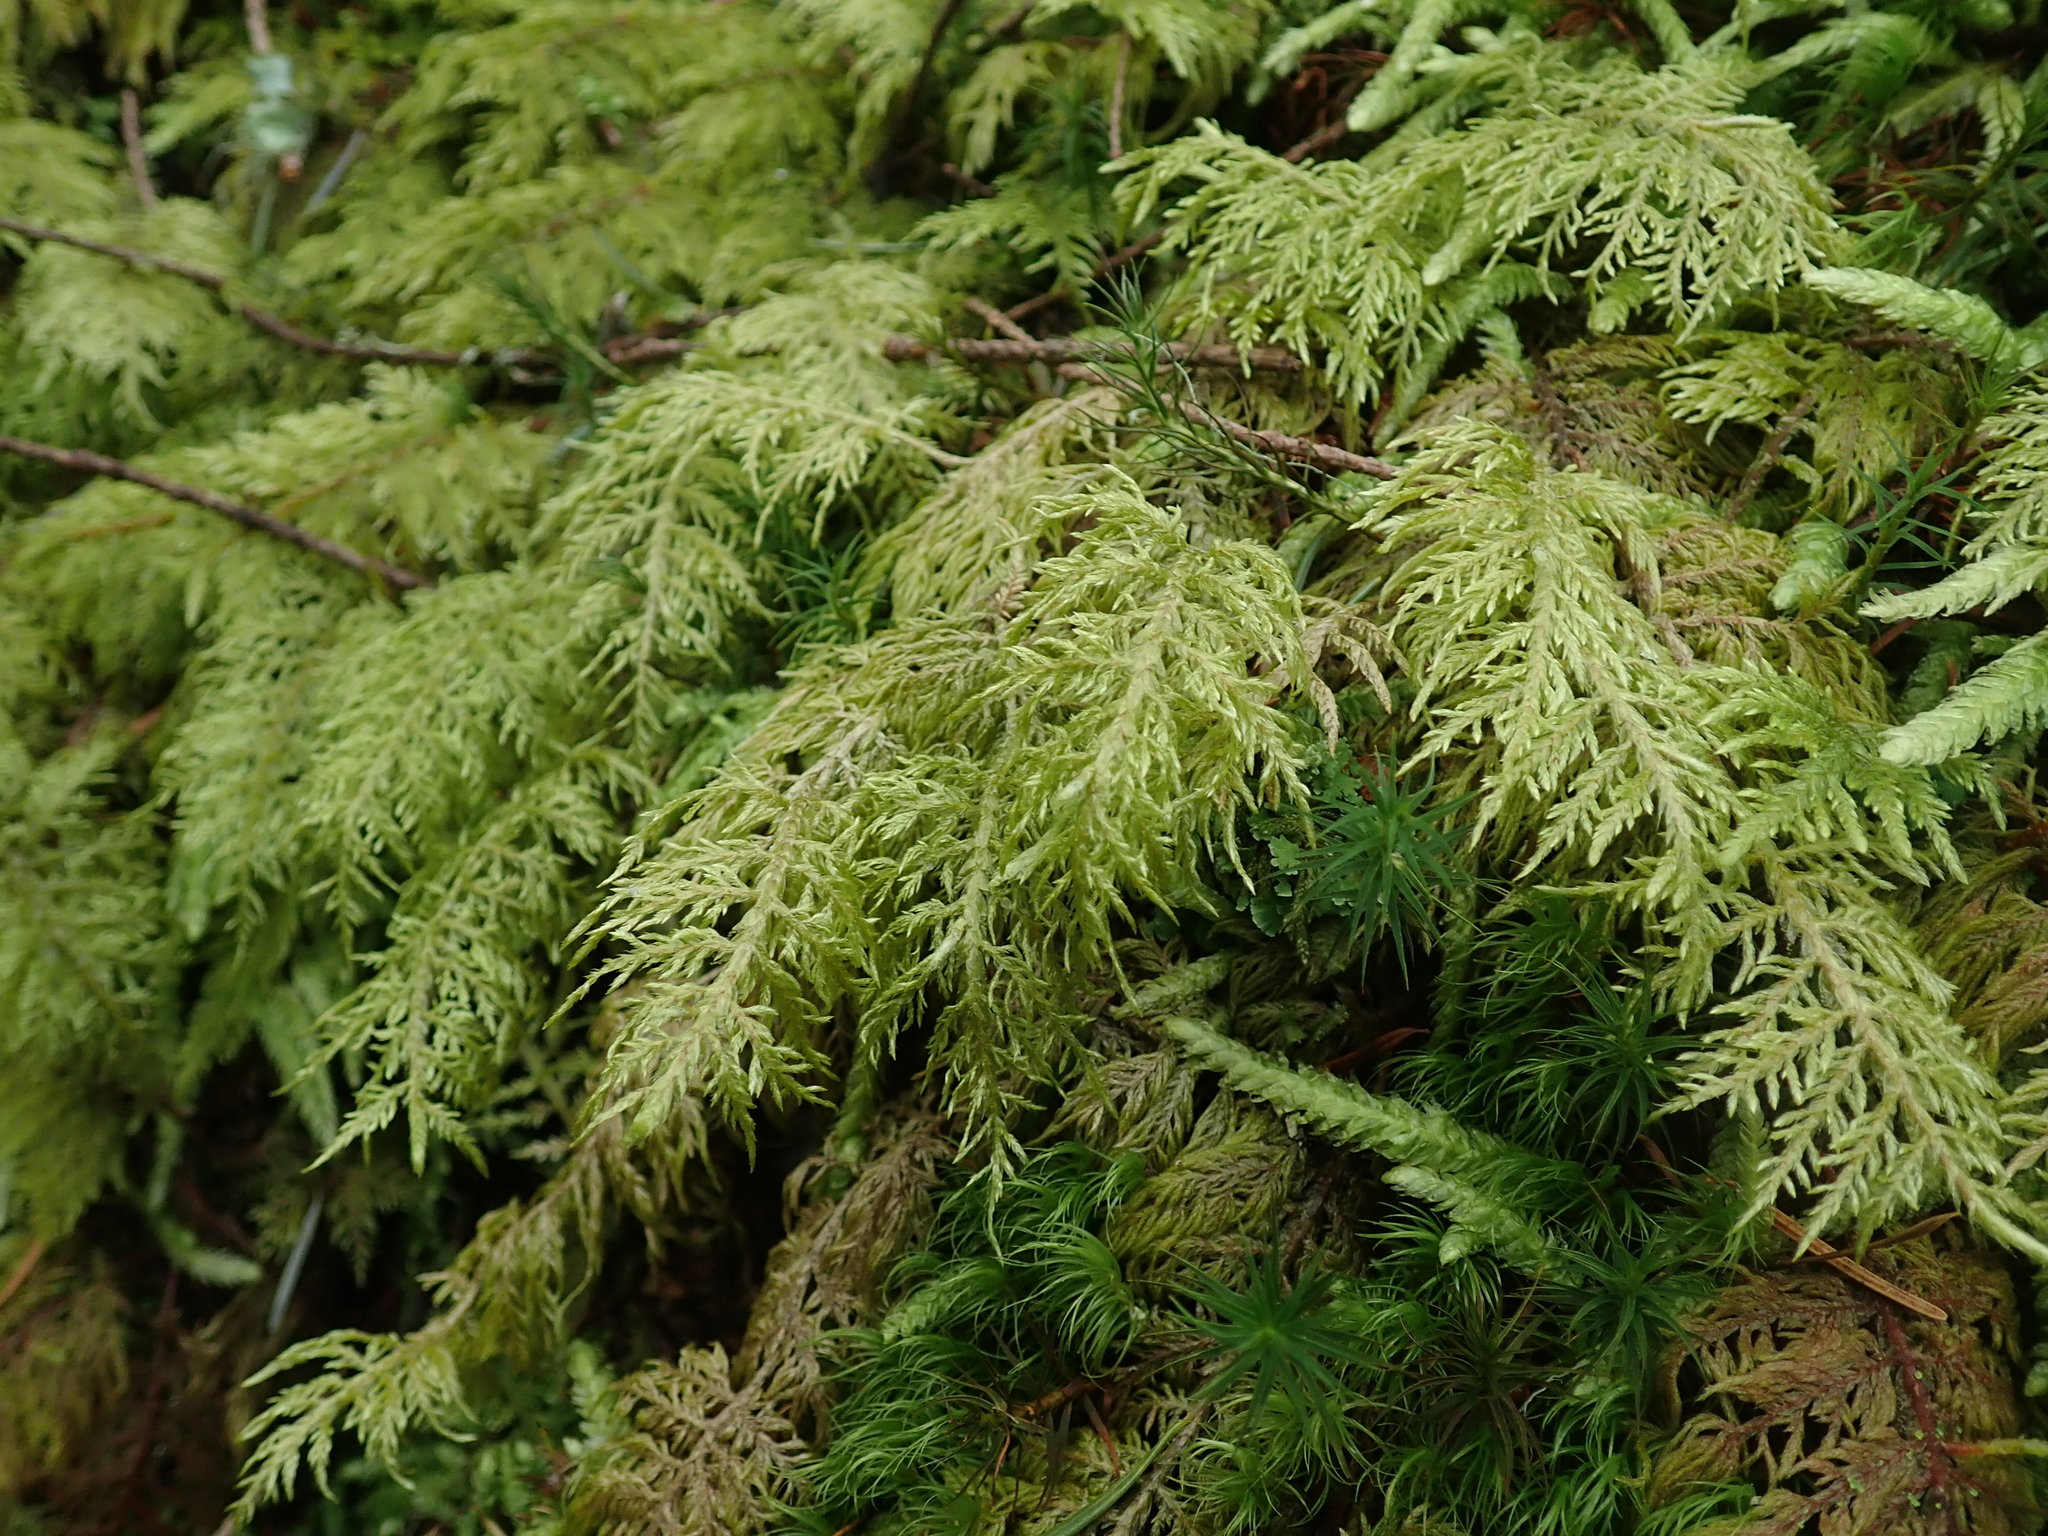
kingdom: Plantae
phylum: Bryophyta
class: Bryopsida
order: Hypnales
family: Hylocomiaceae
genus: Hylocomium
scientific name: Hylocomium splendens
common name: Stairstep moss
